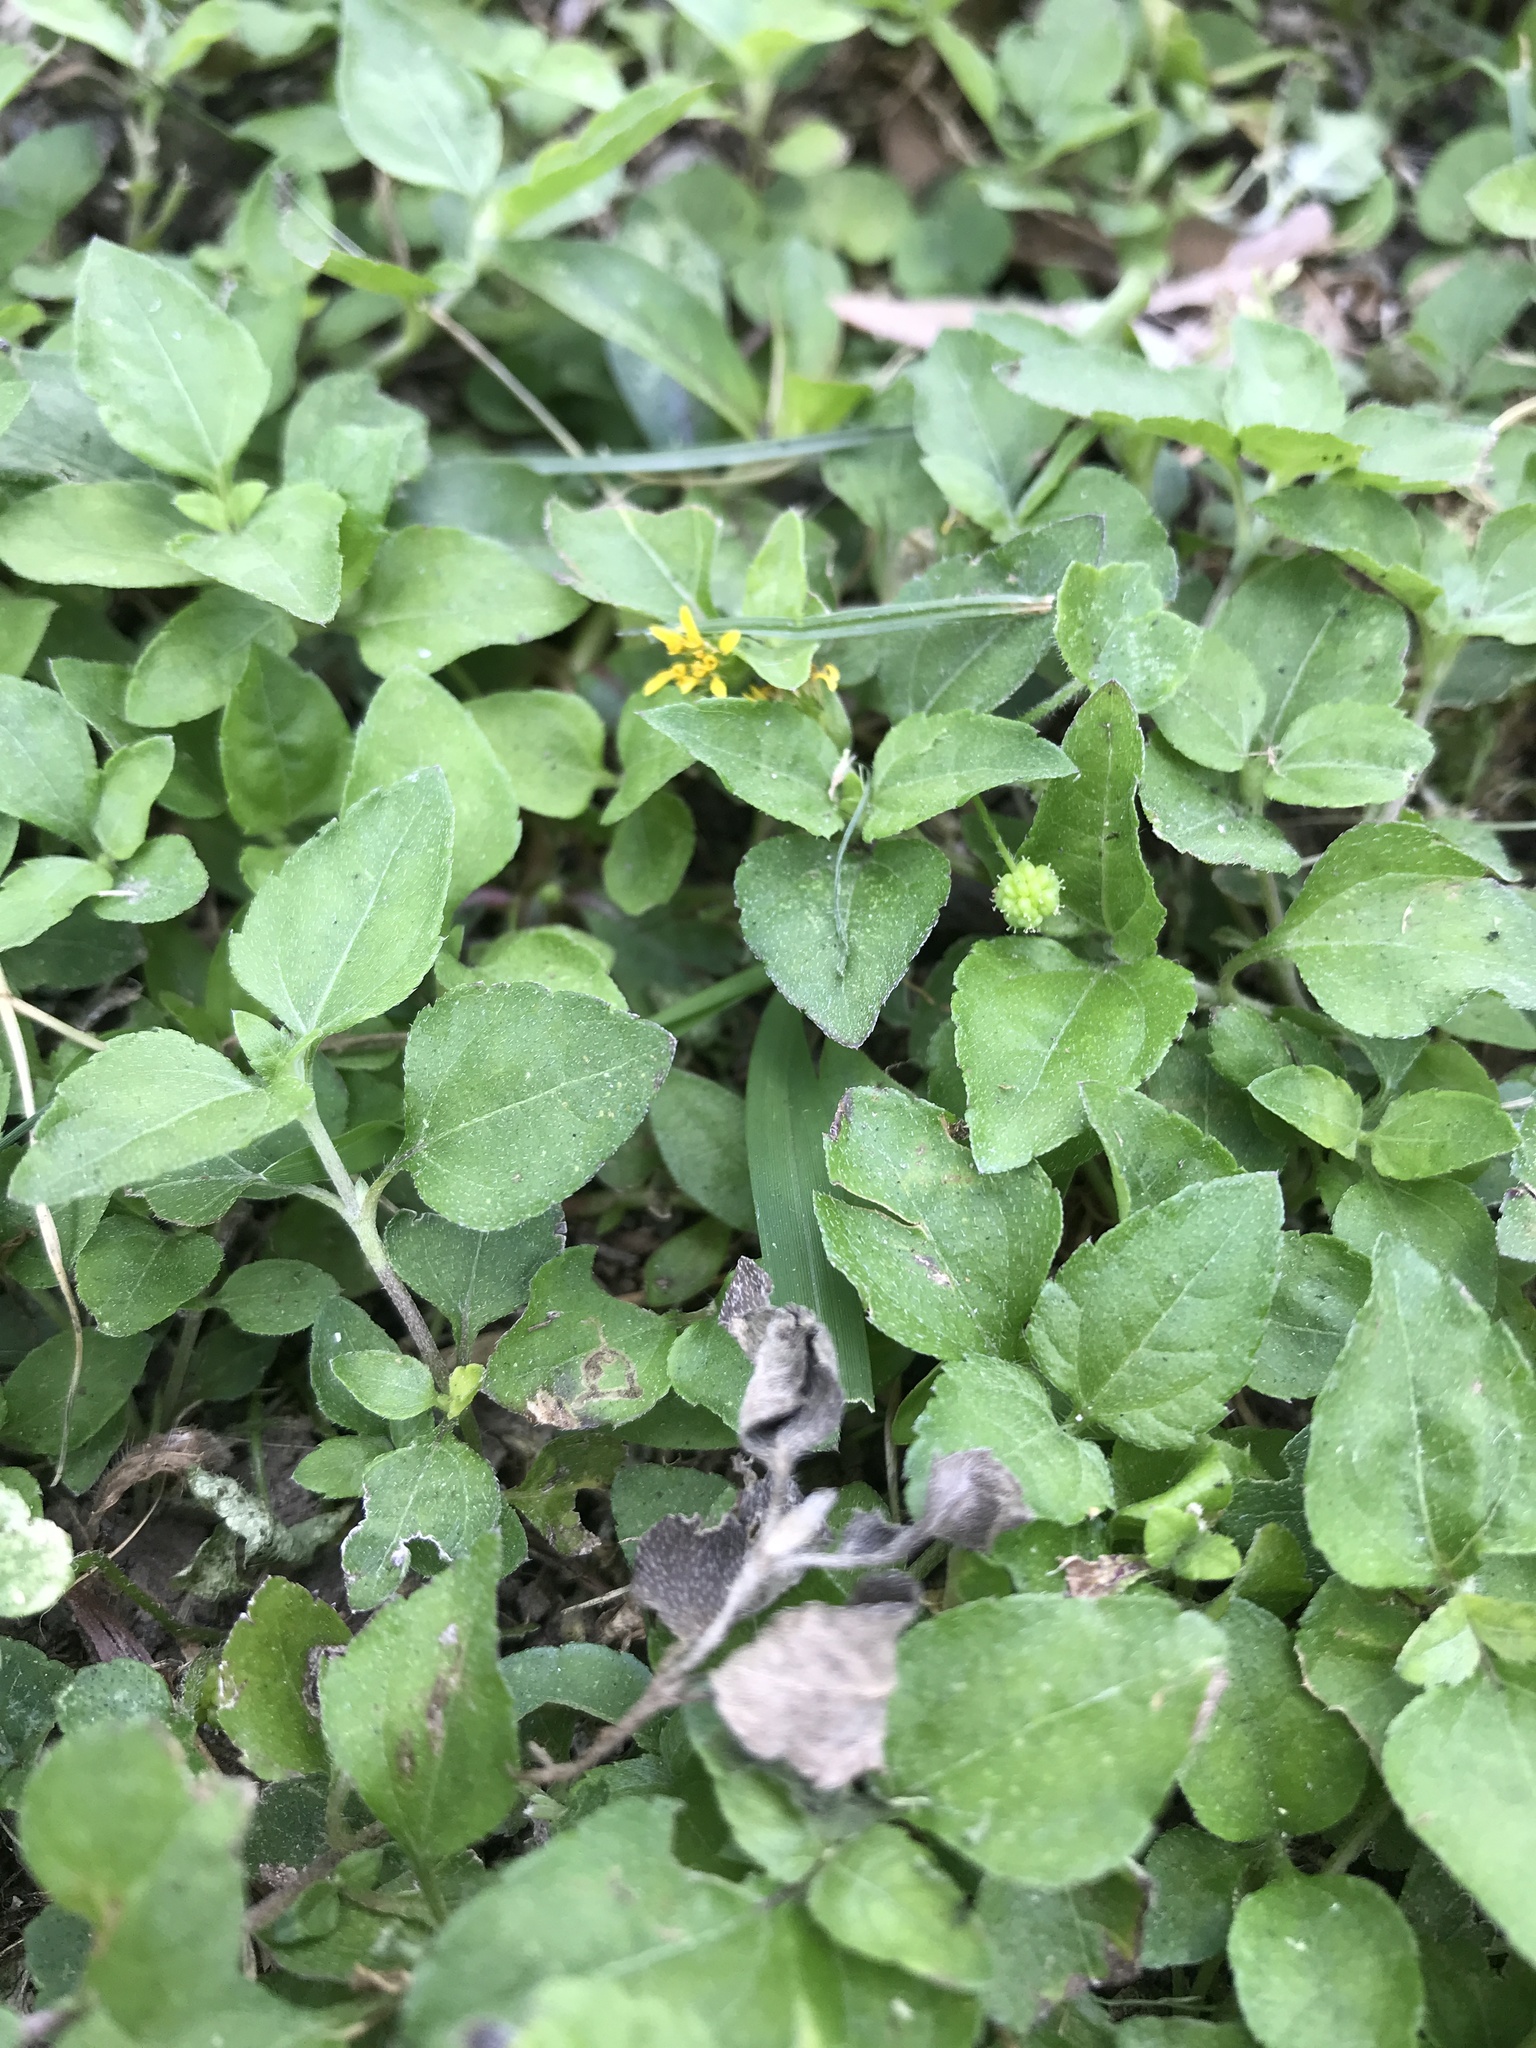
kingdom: Plantae
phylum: Tracheophyta
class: Magnoliopsida
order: Asterales
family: Asteraceae
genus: Calyptocarpus
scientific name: Calyptocarpus vialis
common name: Straggler daisy
